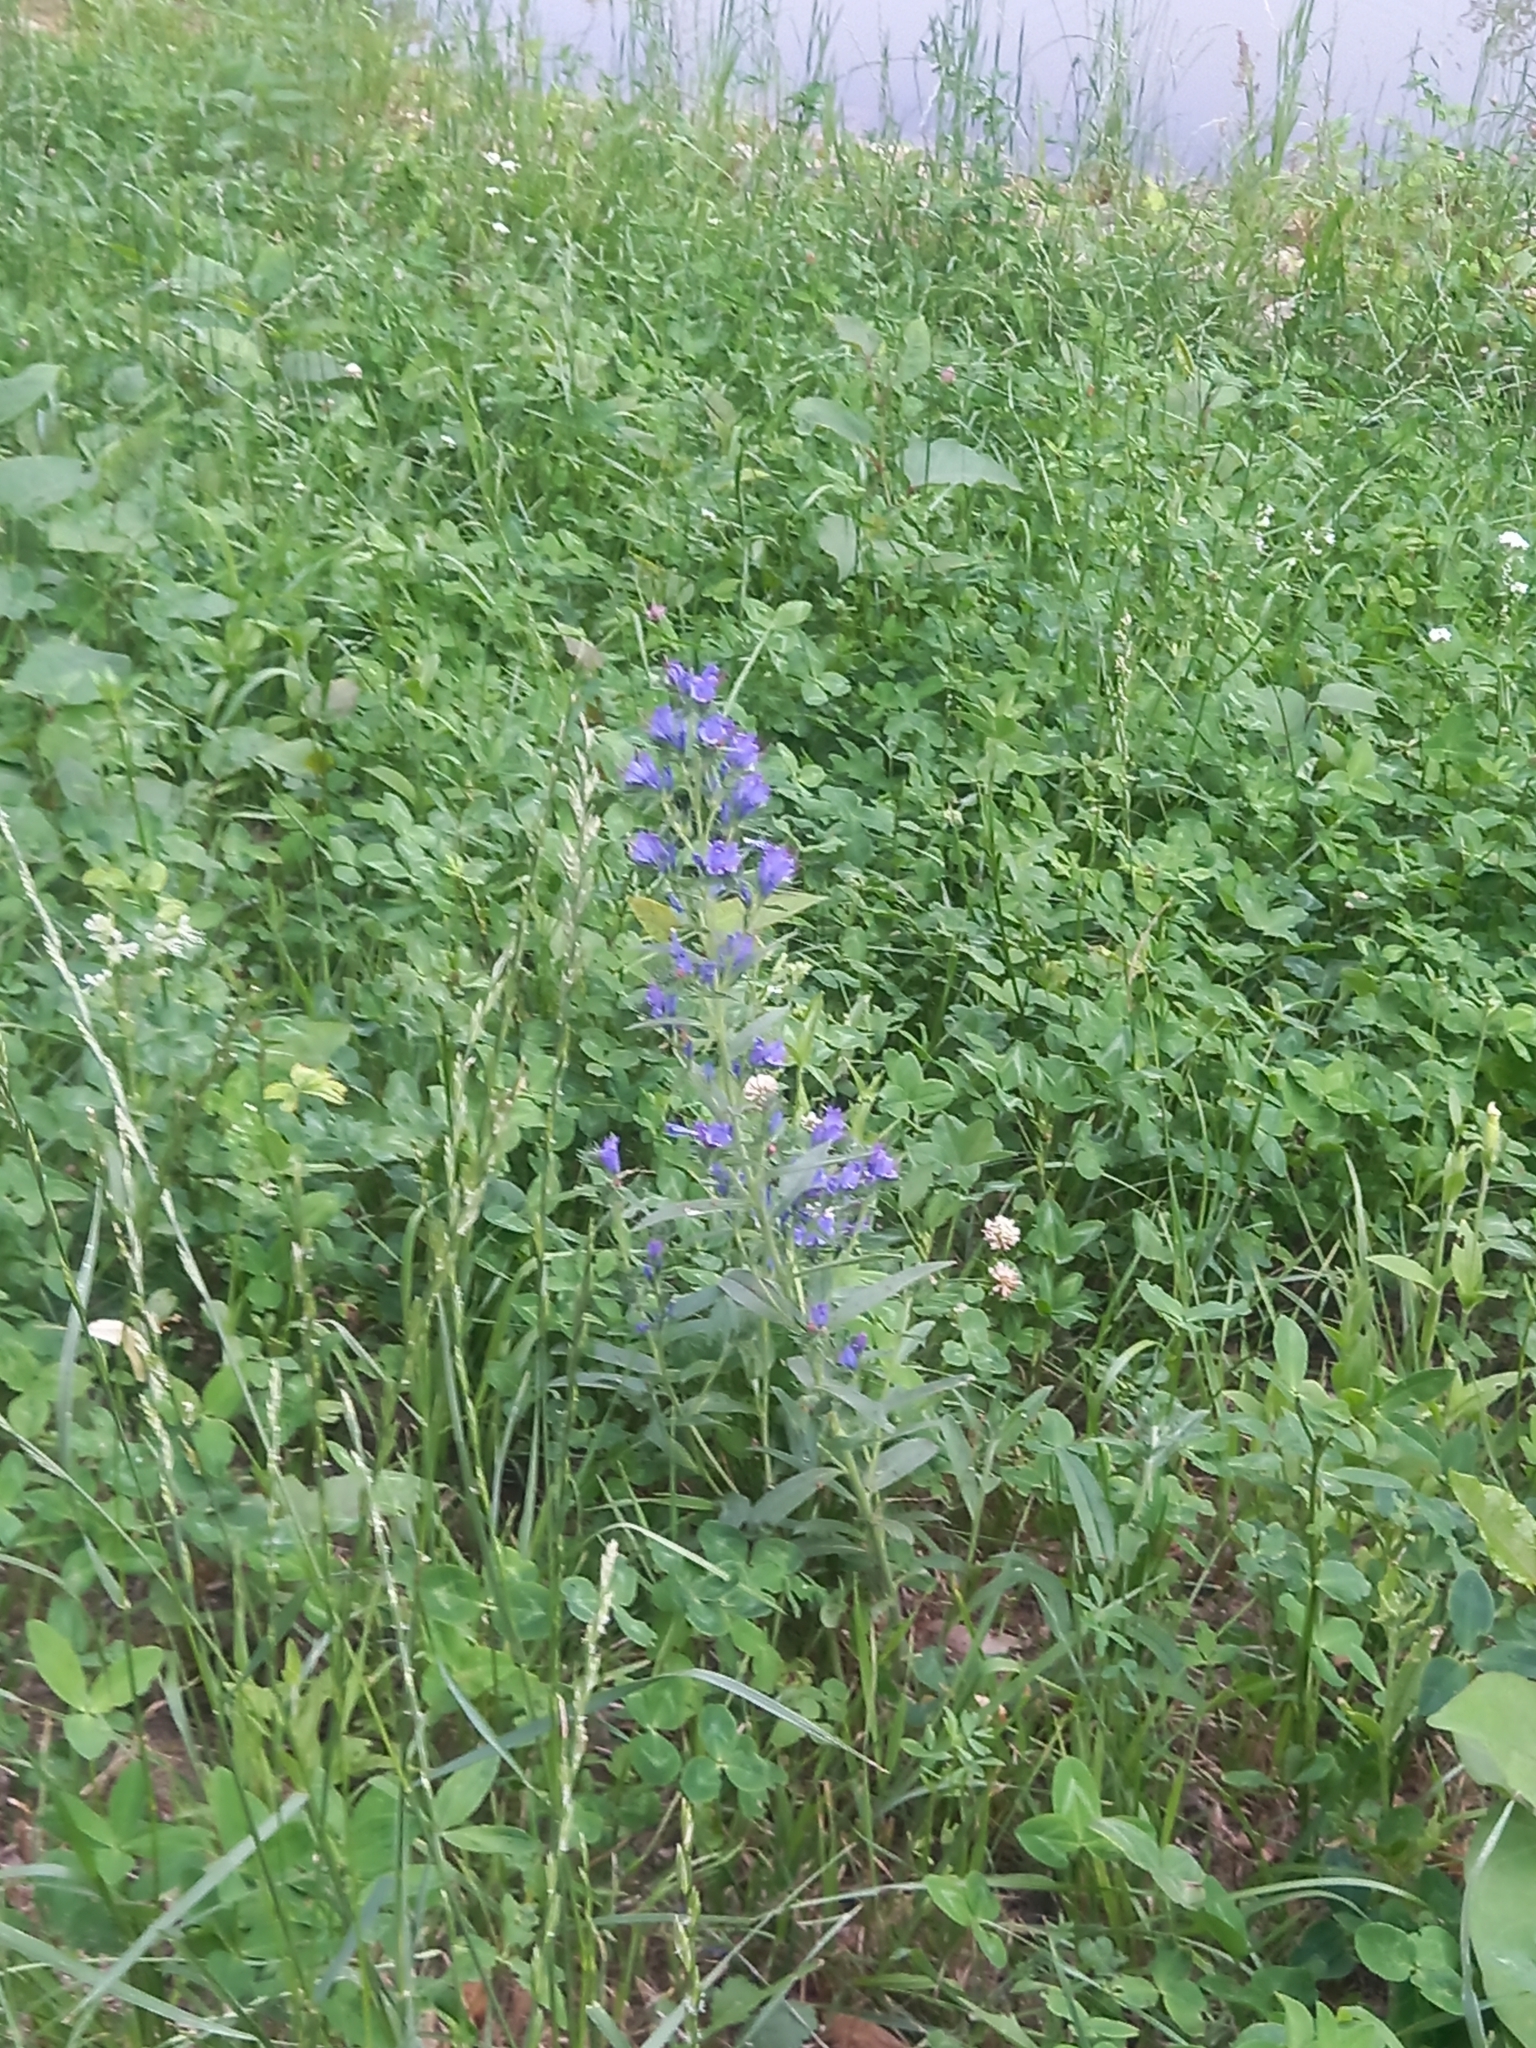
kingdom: Plantae
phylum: Tracheophyta
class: Magnoliopsida
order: Boraginales
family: Boraginaceae
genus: Echium
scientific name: Echium vulgare
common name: Common viper's bugloss
